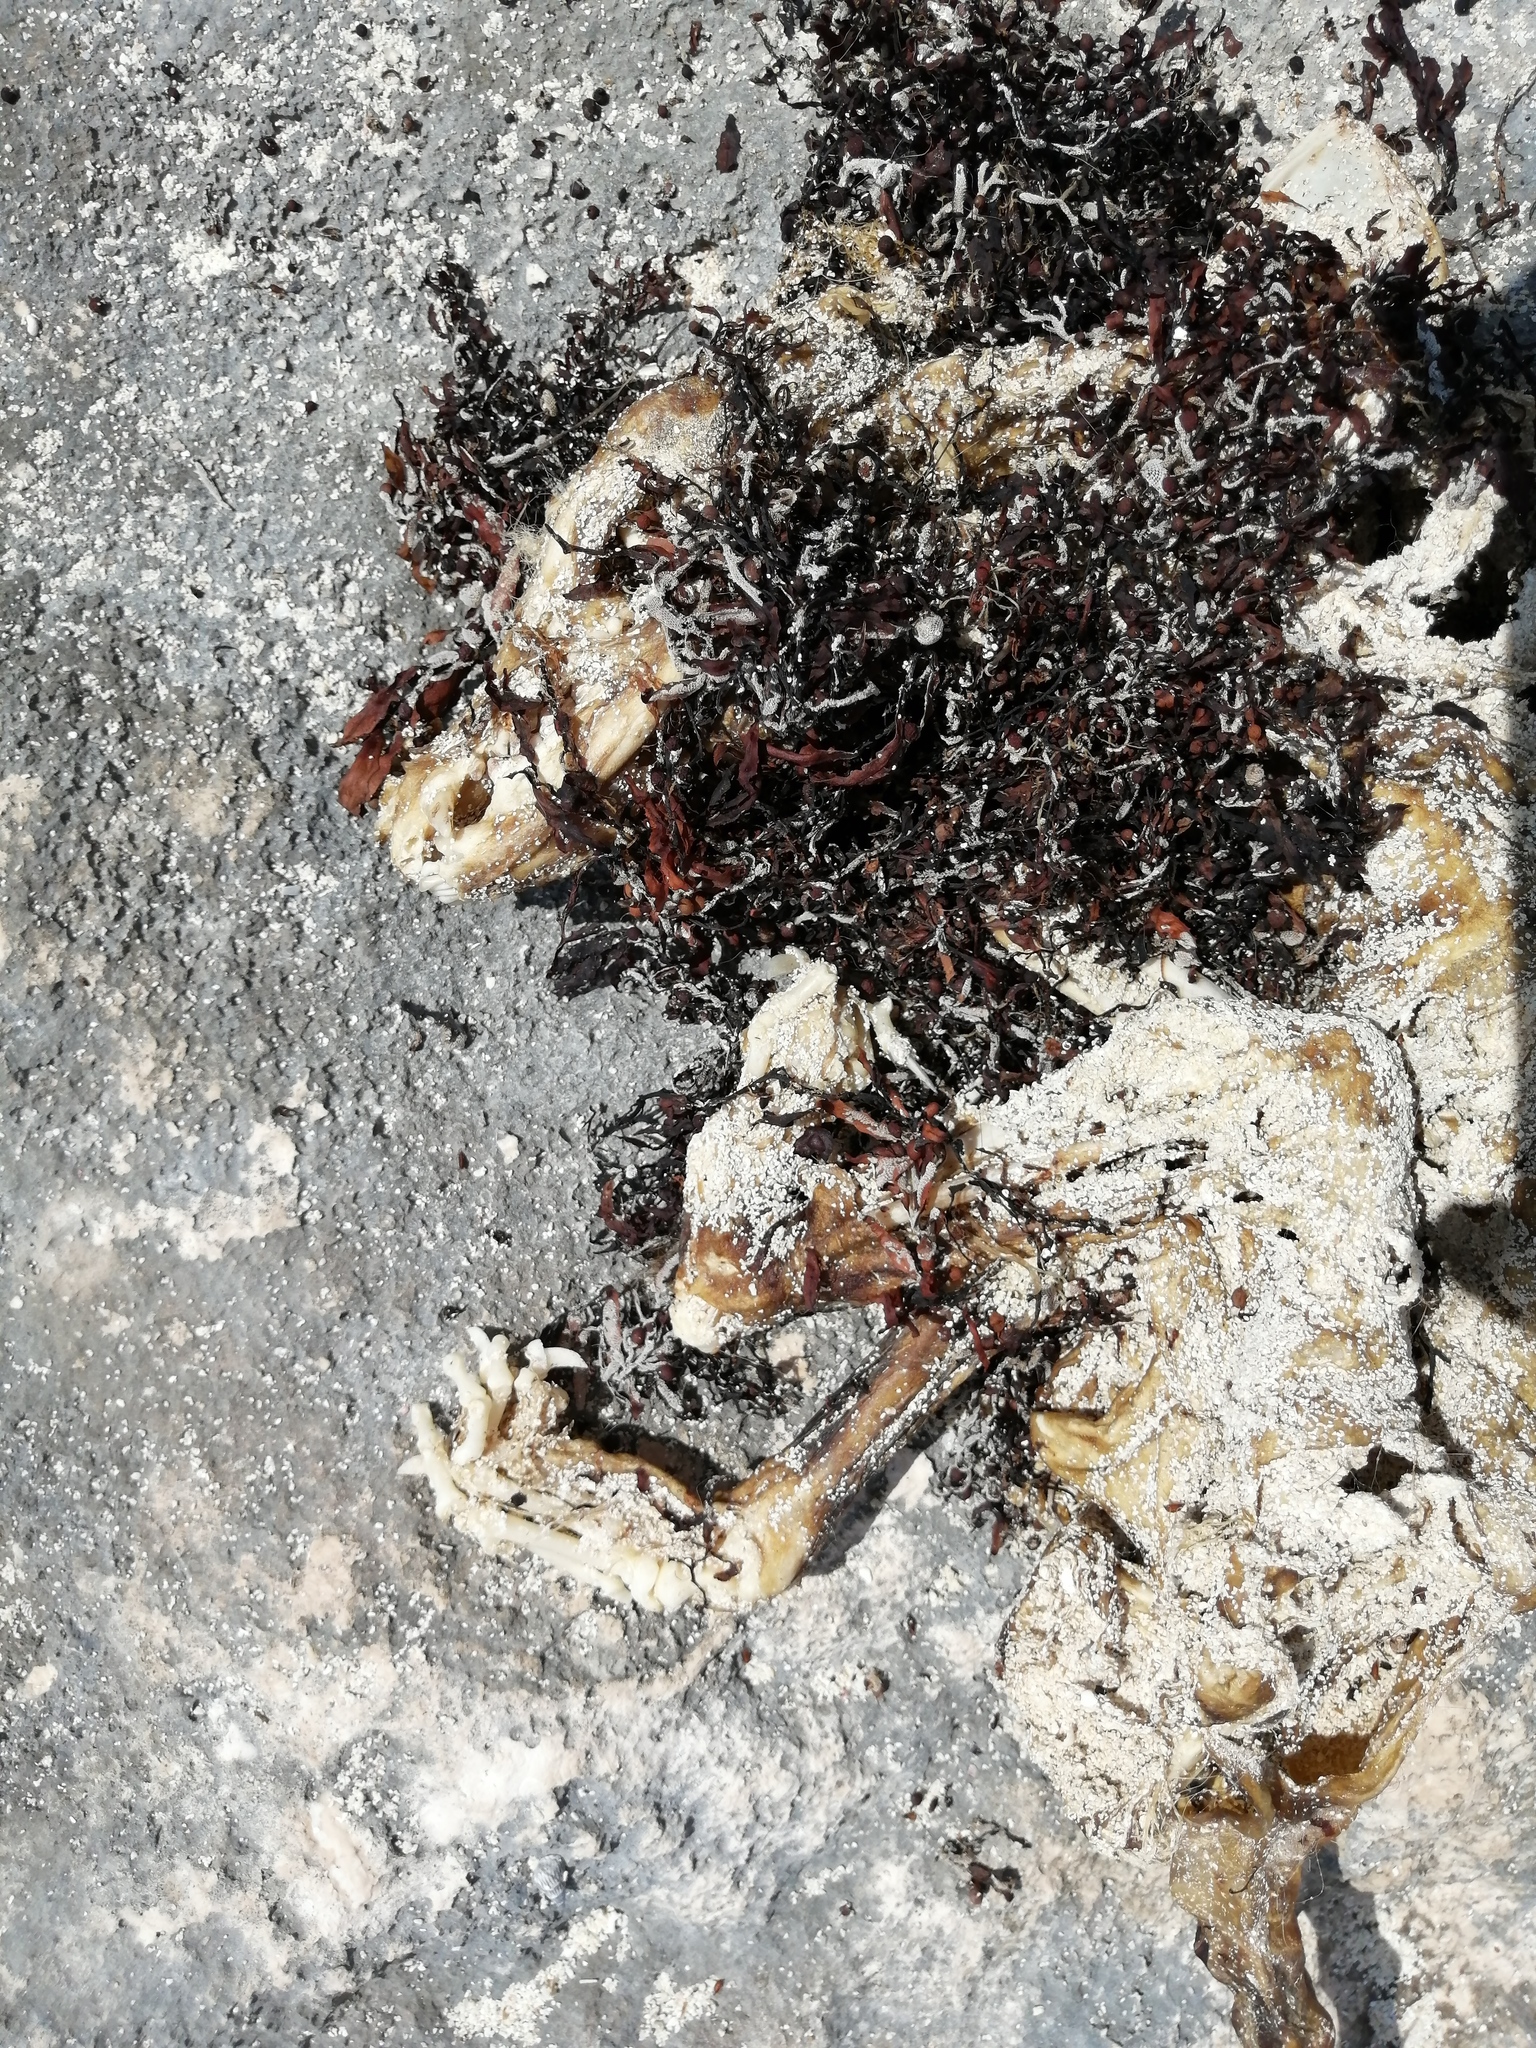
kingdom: Animalia
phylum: Chordata
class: Mammalia
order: Carnivora
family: Procyonidae
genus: Nasua
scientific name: Nasua narica
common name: White-nosed coati
